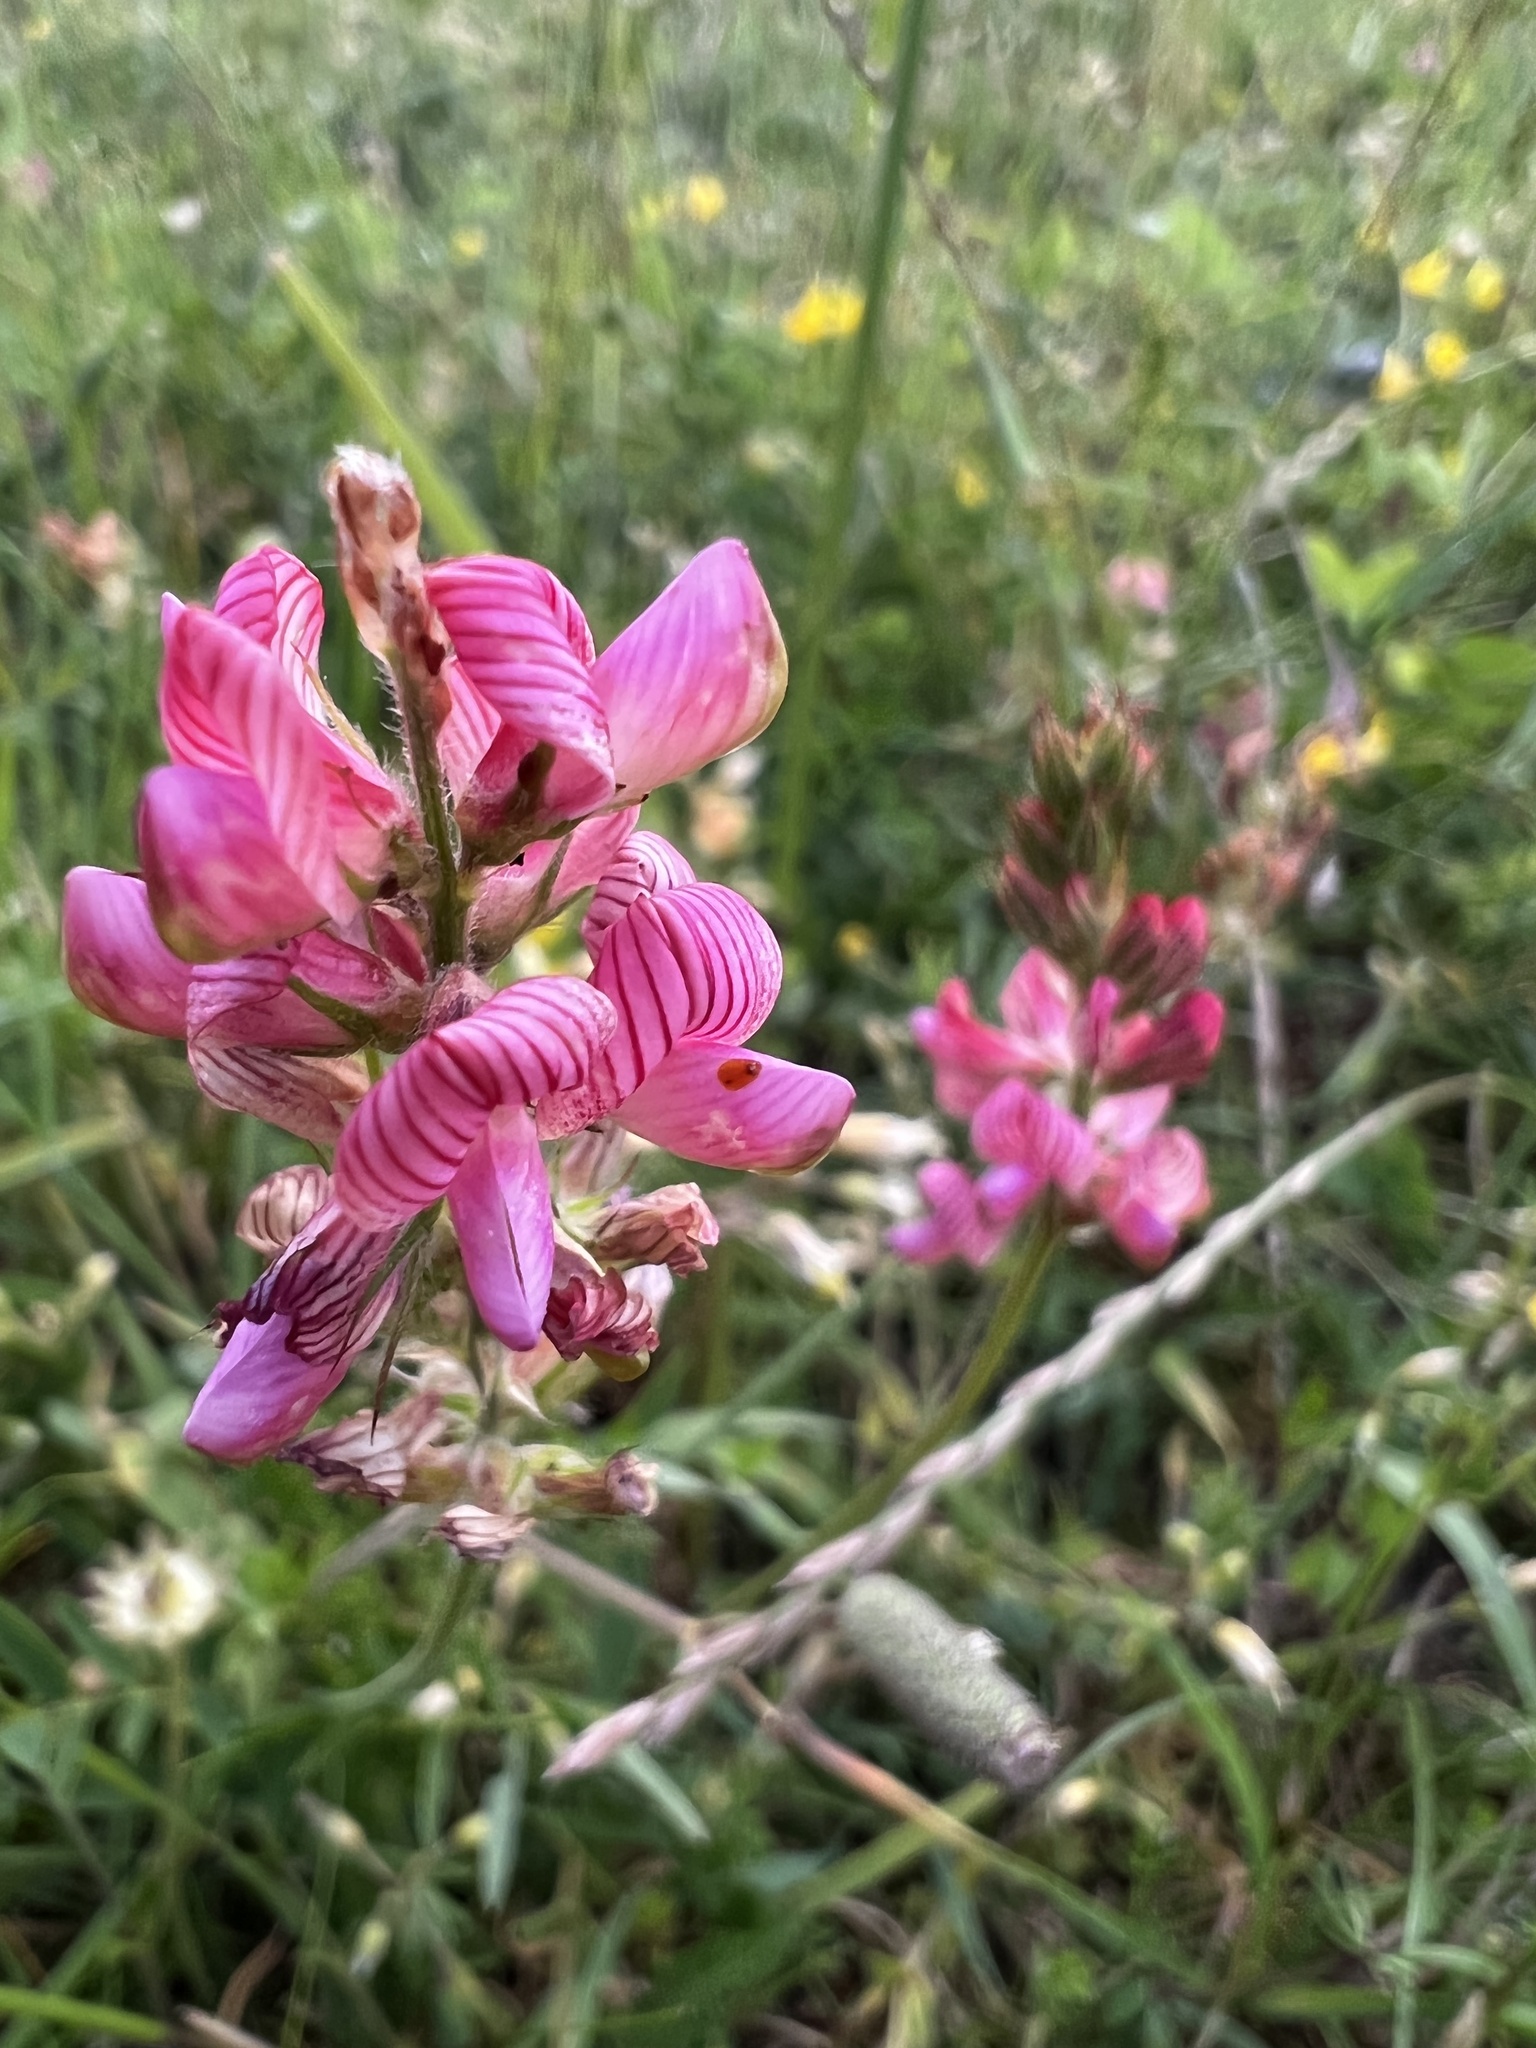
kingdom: Plantae
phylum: Tracheophyta
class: Magnoliopsida
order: Fabales
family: Fabaceae
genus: Onobrychis
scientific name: Onobrychis viciifolia
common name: Sainfoin
